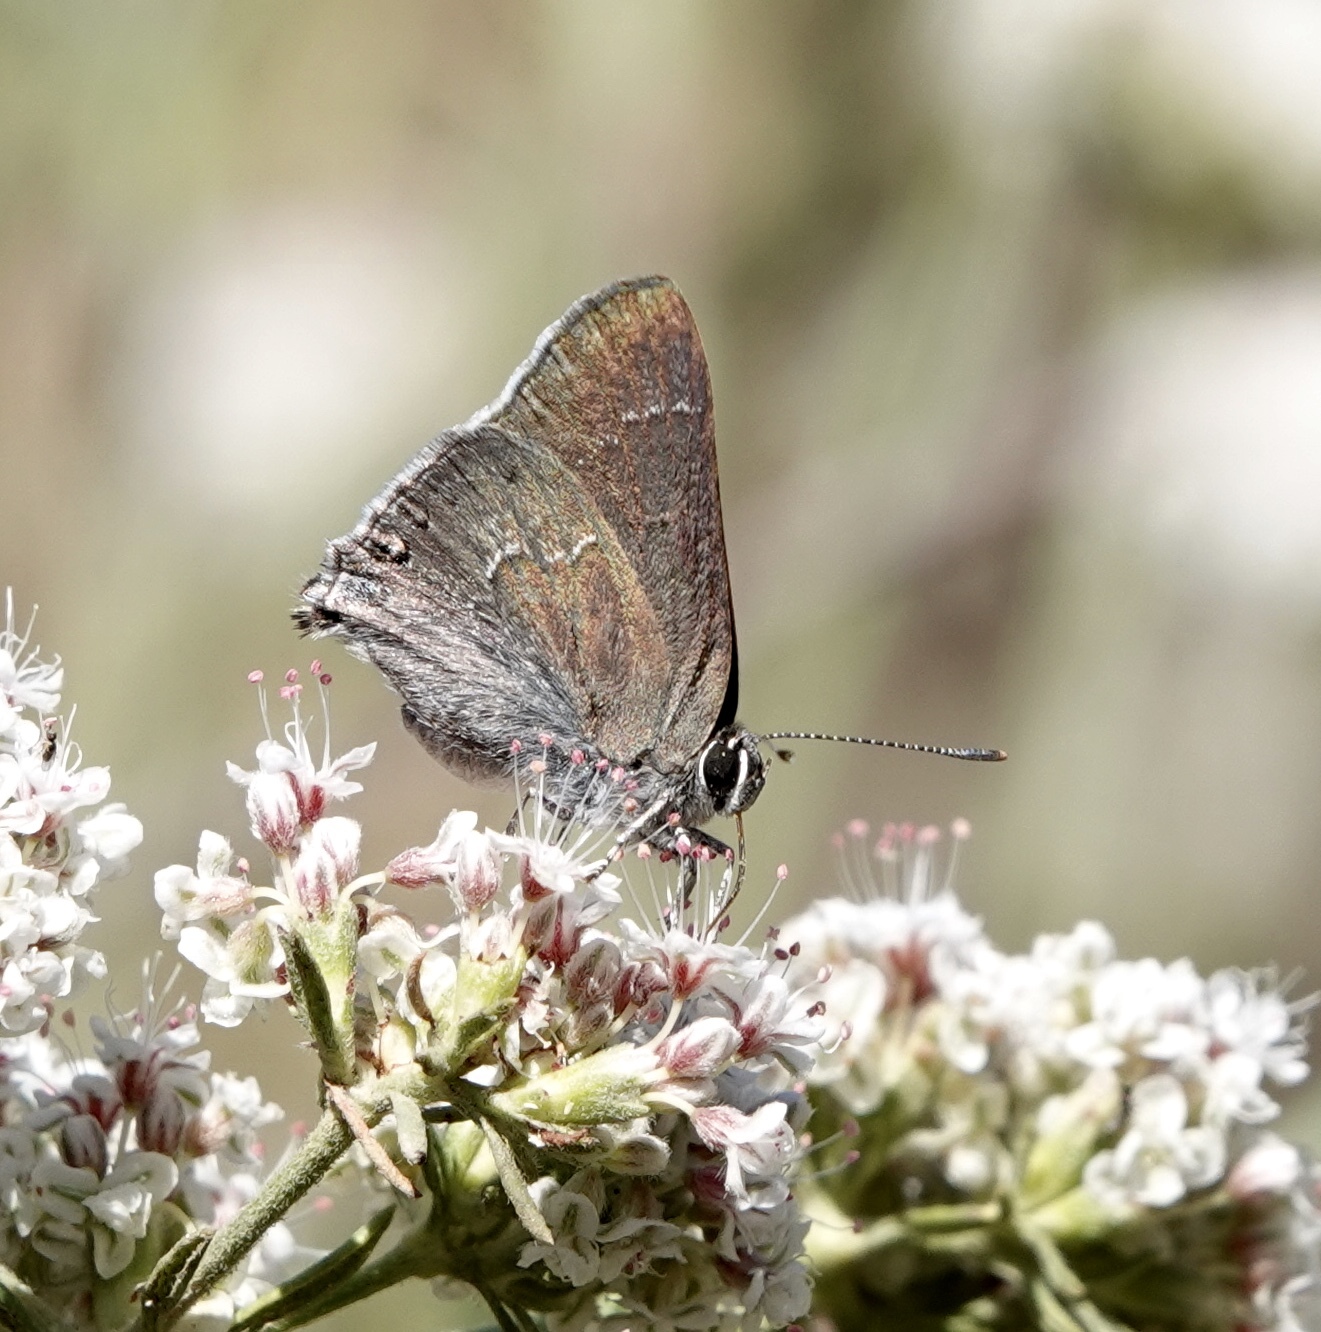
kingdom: Animalia
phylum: Arthropoda
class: Insecta
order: Lepidoptera
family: Lycaenidae
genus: Thecla
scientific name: Thecla tetra
